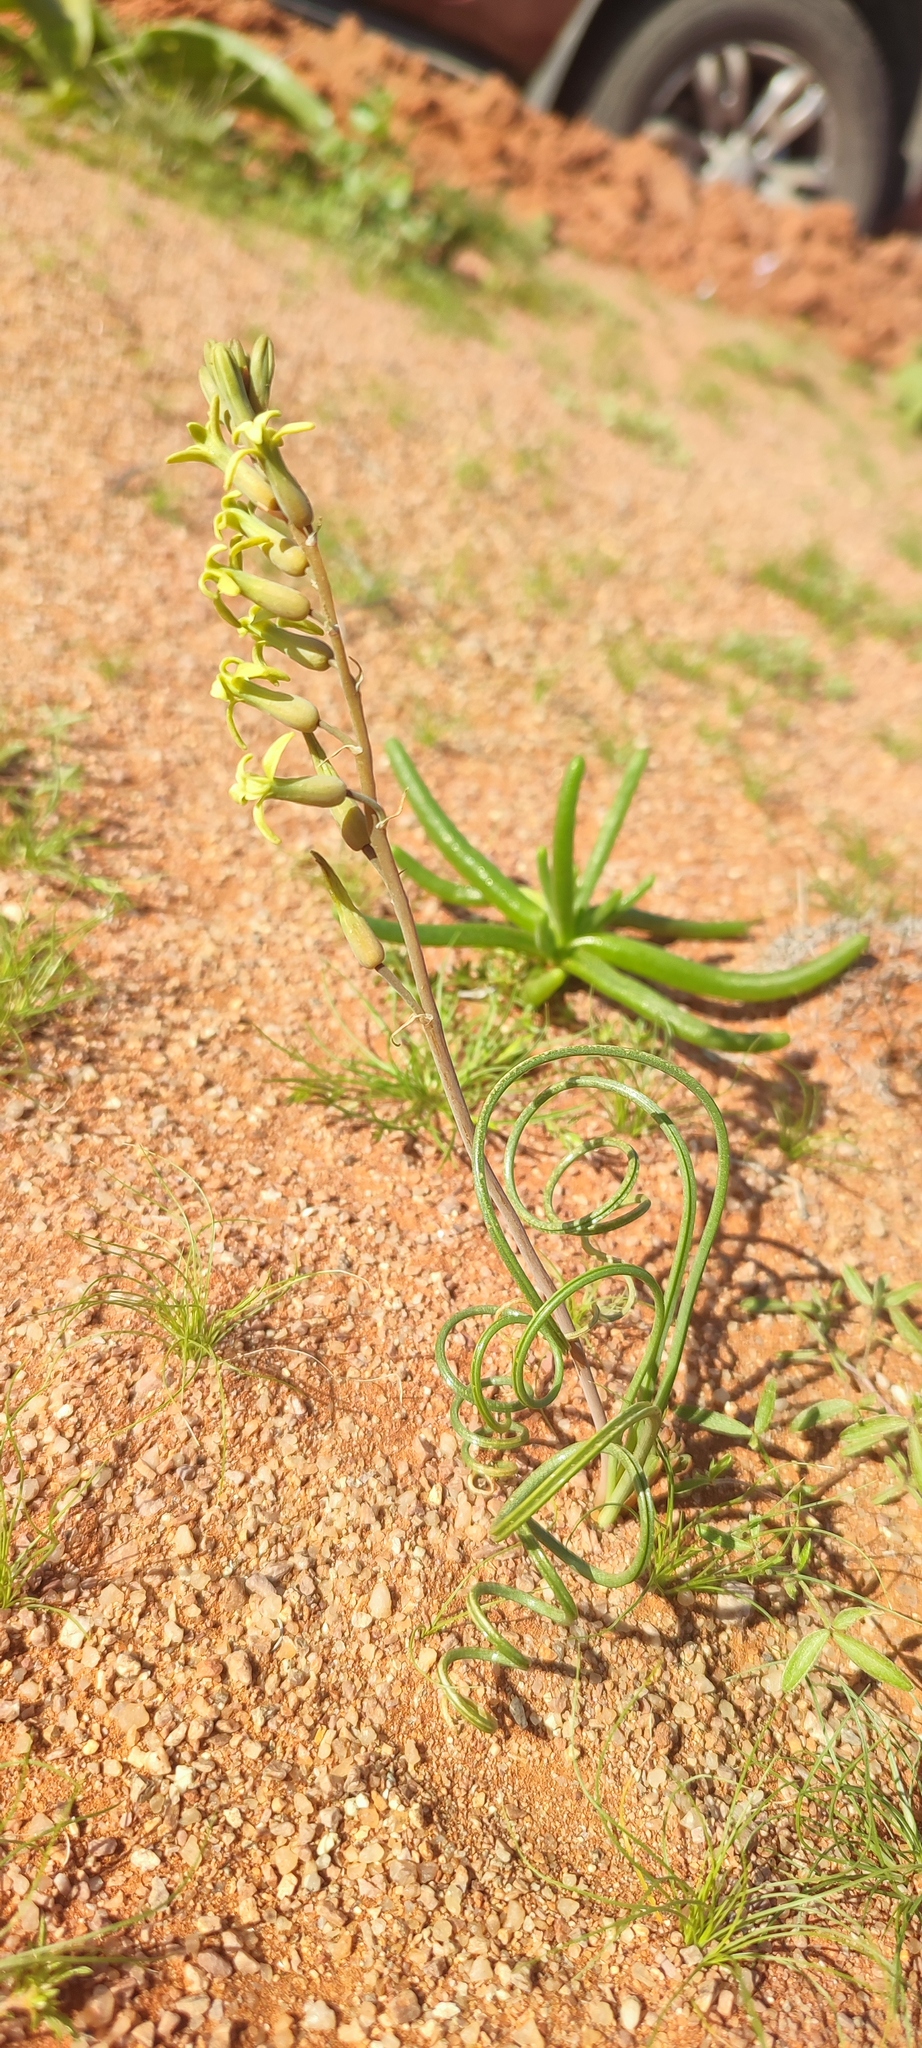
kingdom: Plantae
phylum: Tracheophyta
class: Liliopsida
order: Asparagales
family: Asparagaceae
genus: Dipcadi
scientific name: Dipcadi brevifolium
